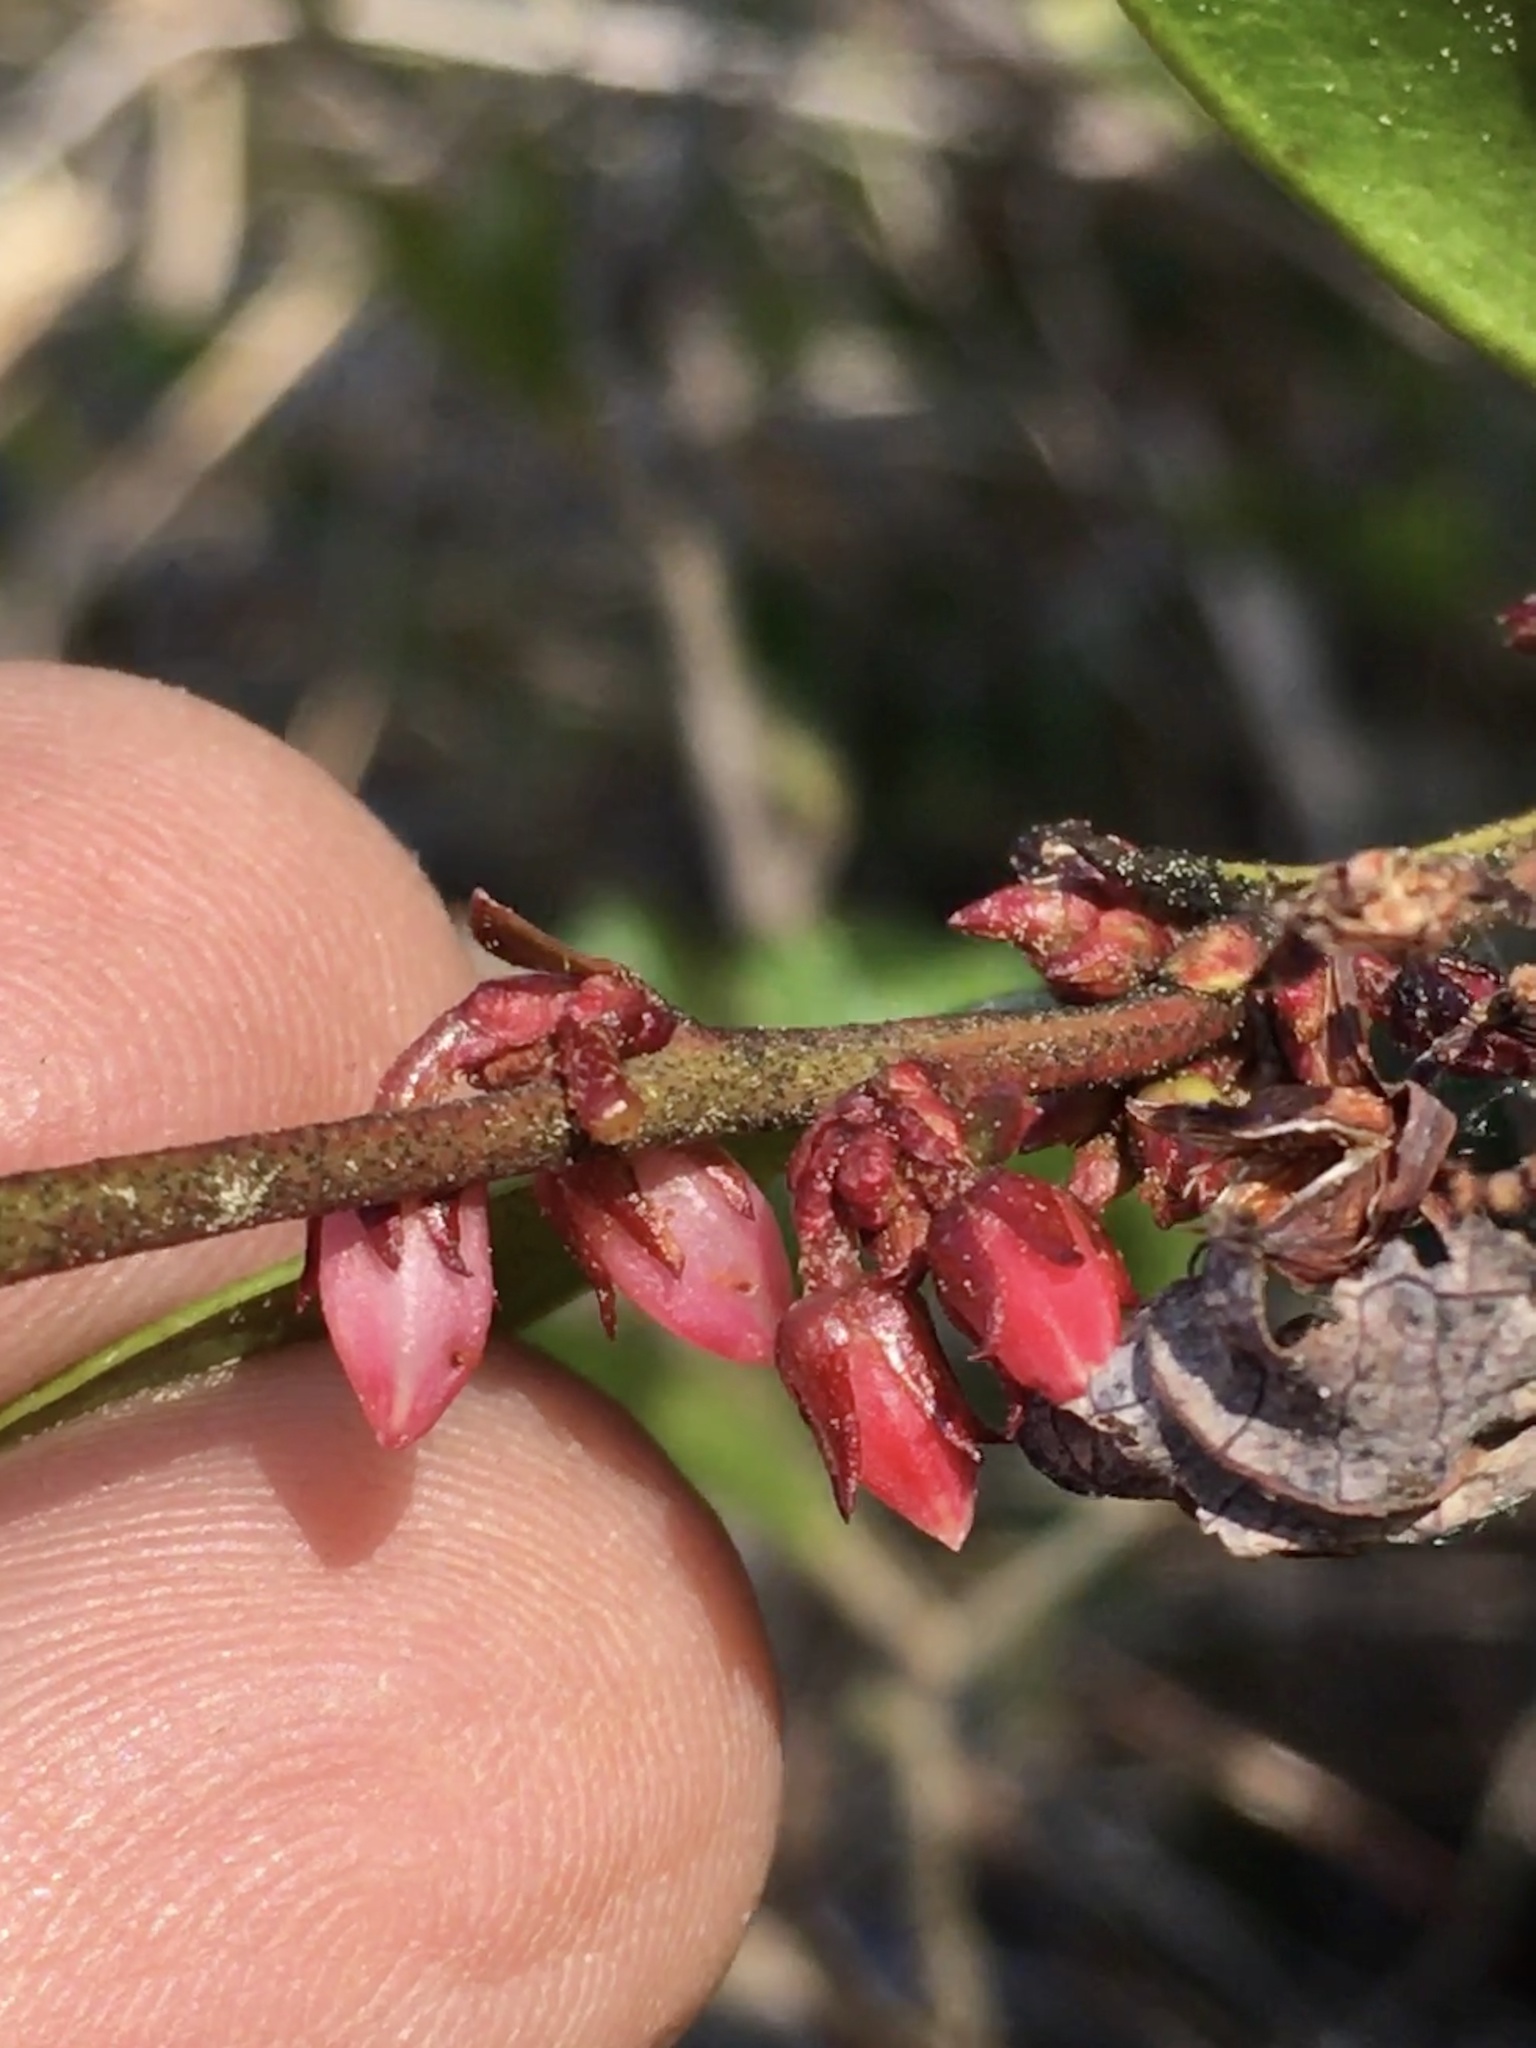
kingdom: Plantae
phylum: Tracheophyta
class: Magnoliopsida
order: Ericales
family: Ericaceae
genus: Lyonia
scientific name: Lyonia lucida
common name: Fetterbush
